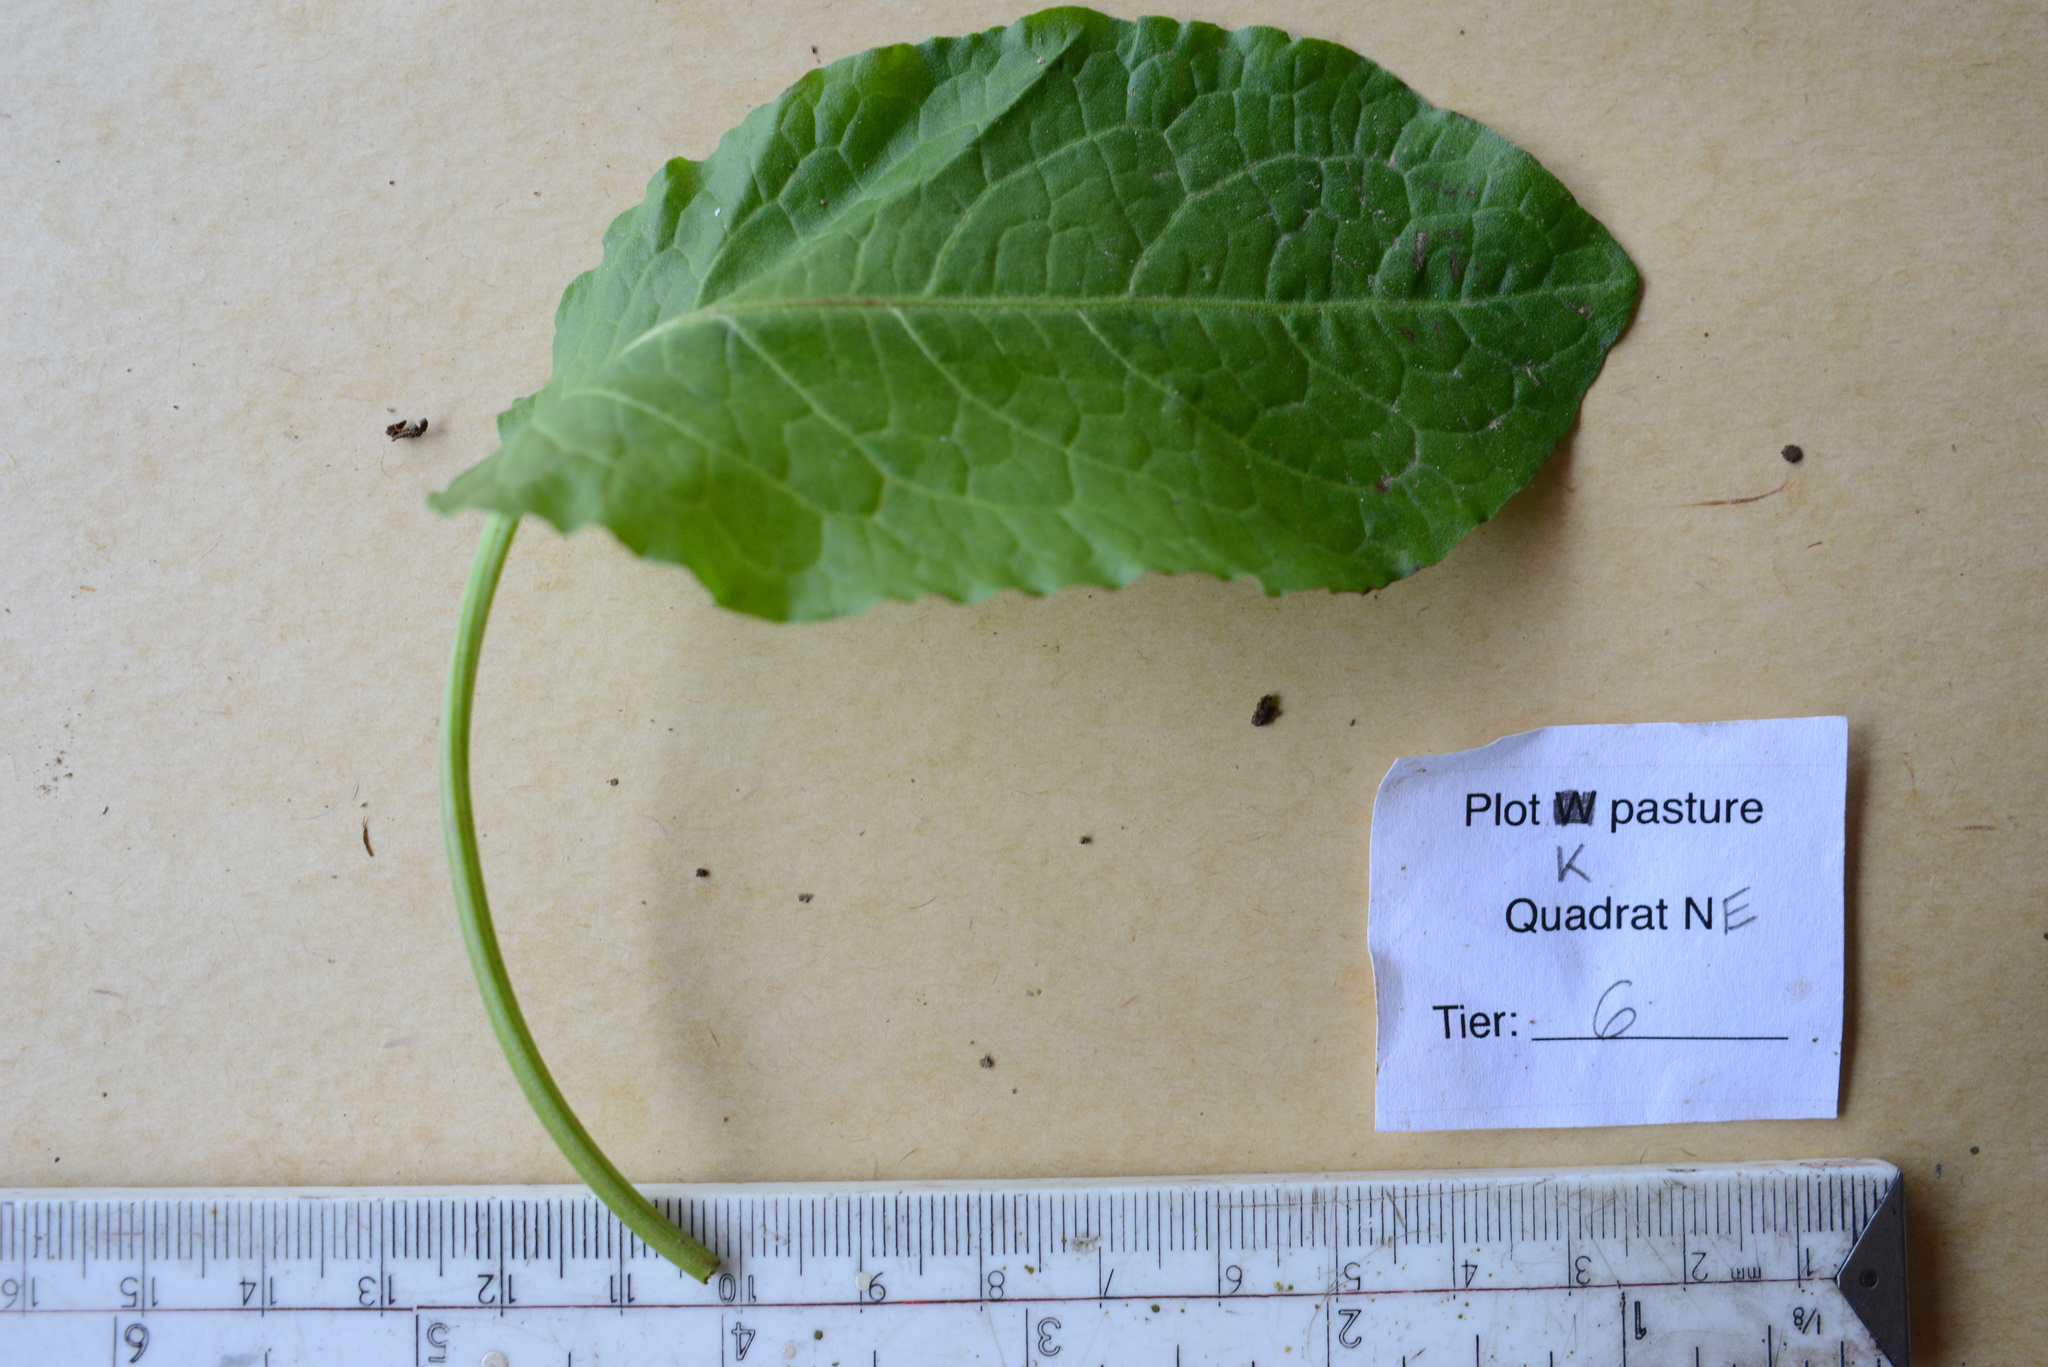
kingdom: Plantae
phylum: Tracheophyta
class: Magnoliopsida
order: Caryophyllales
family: Polygonaceae
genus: Rumex
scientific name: Rumex obtusifolius
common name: Bitter dock
